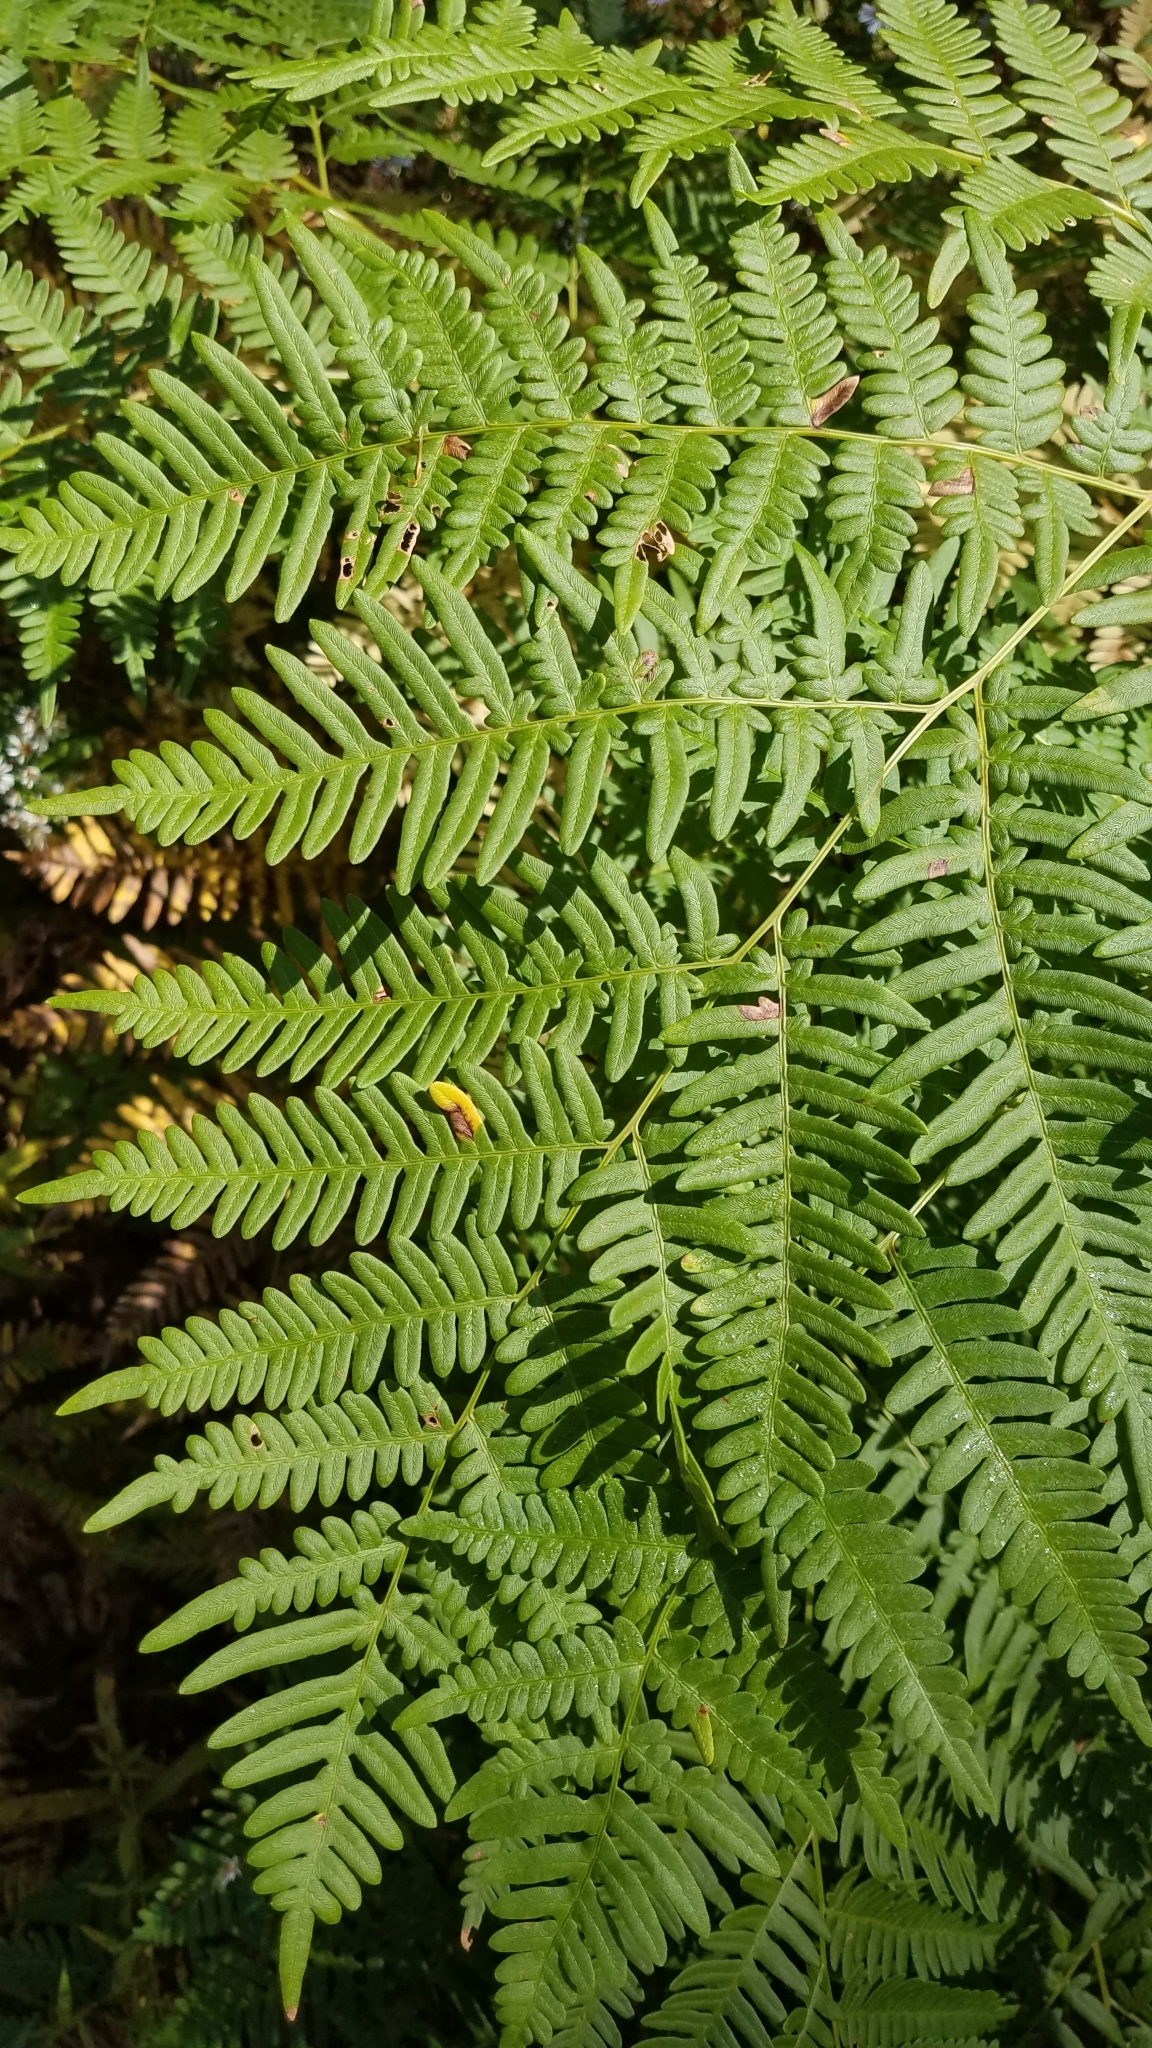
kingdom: Plantae
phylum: Tracheophyta
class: Polypodiopsida
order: Polypodiales
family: Dennstaedtiaceae
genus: Pteridium
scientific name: Pteridium aquilinum
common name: Bracken
